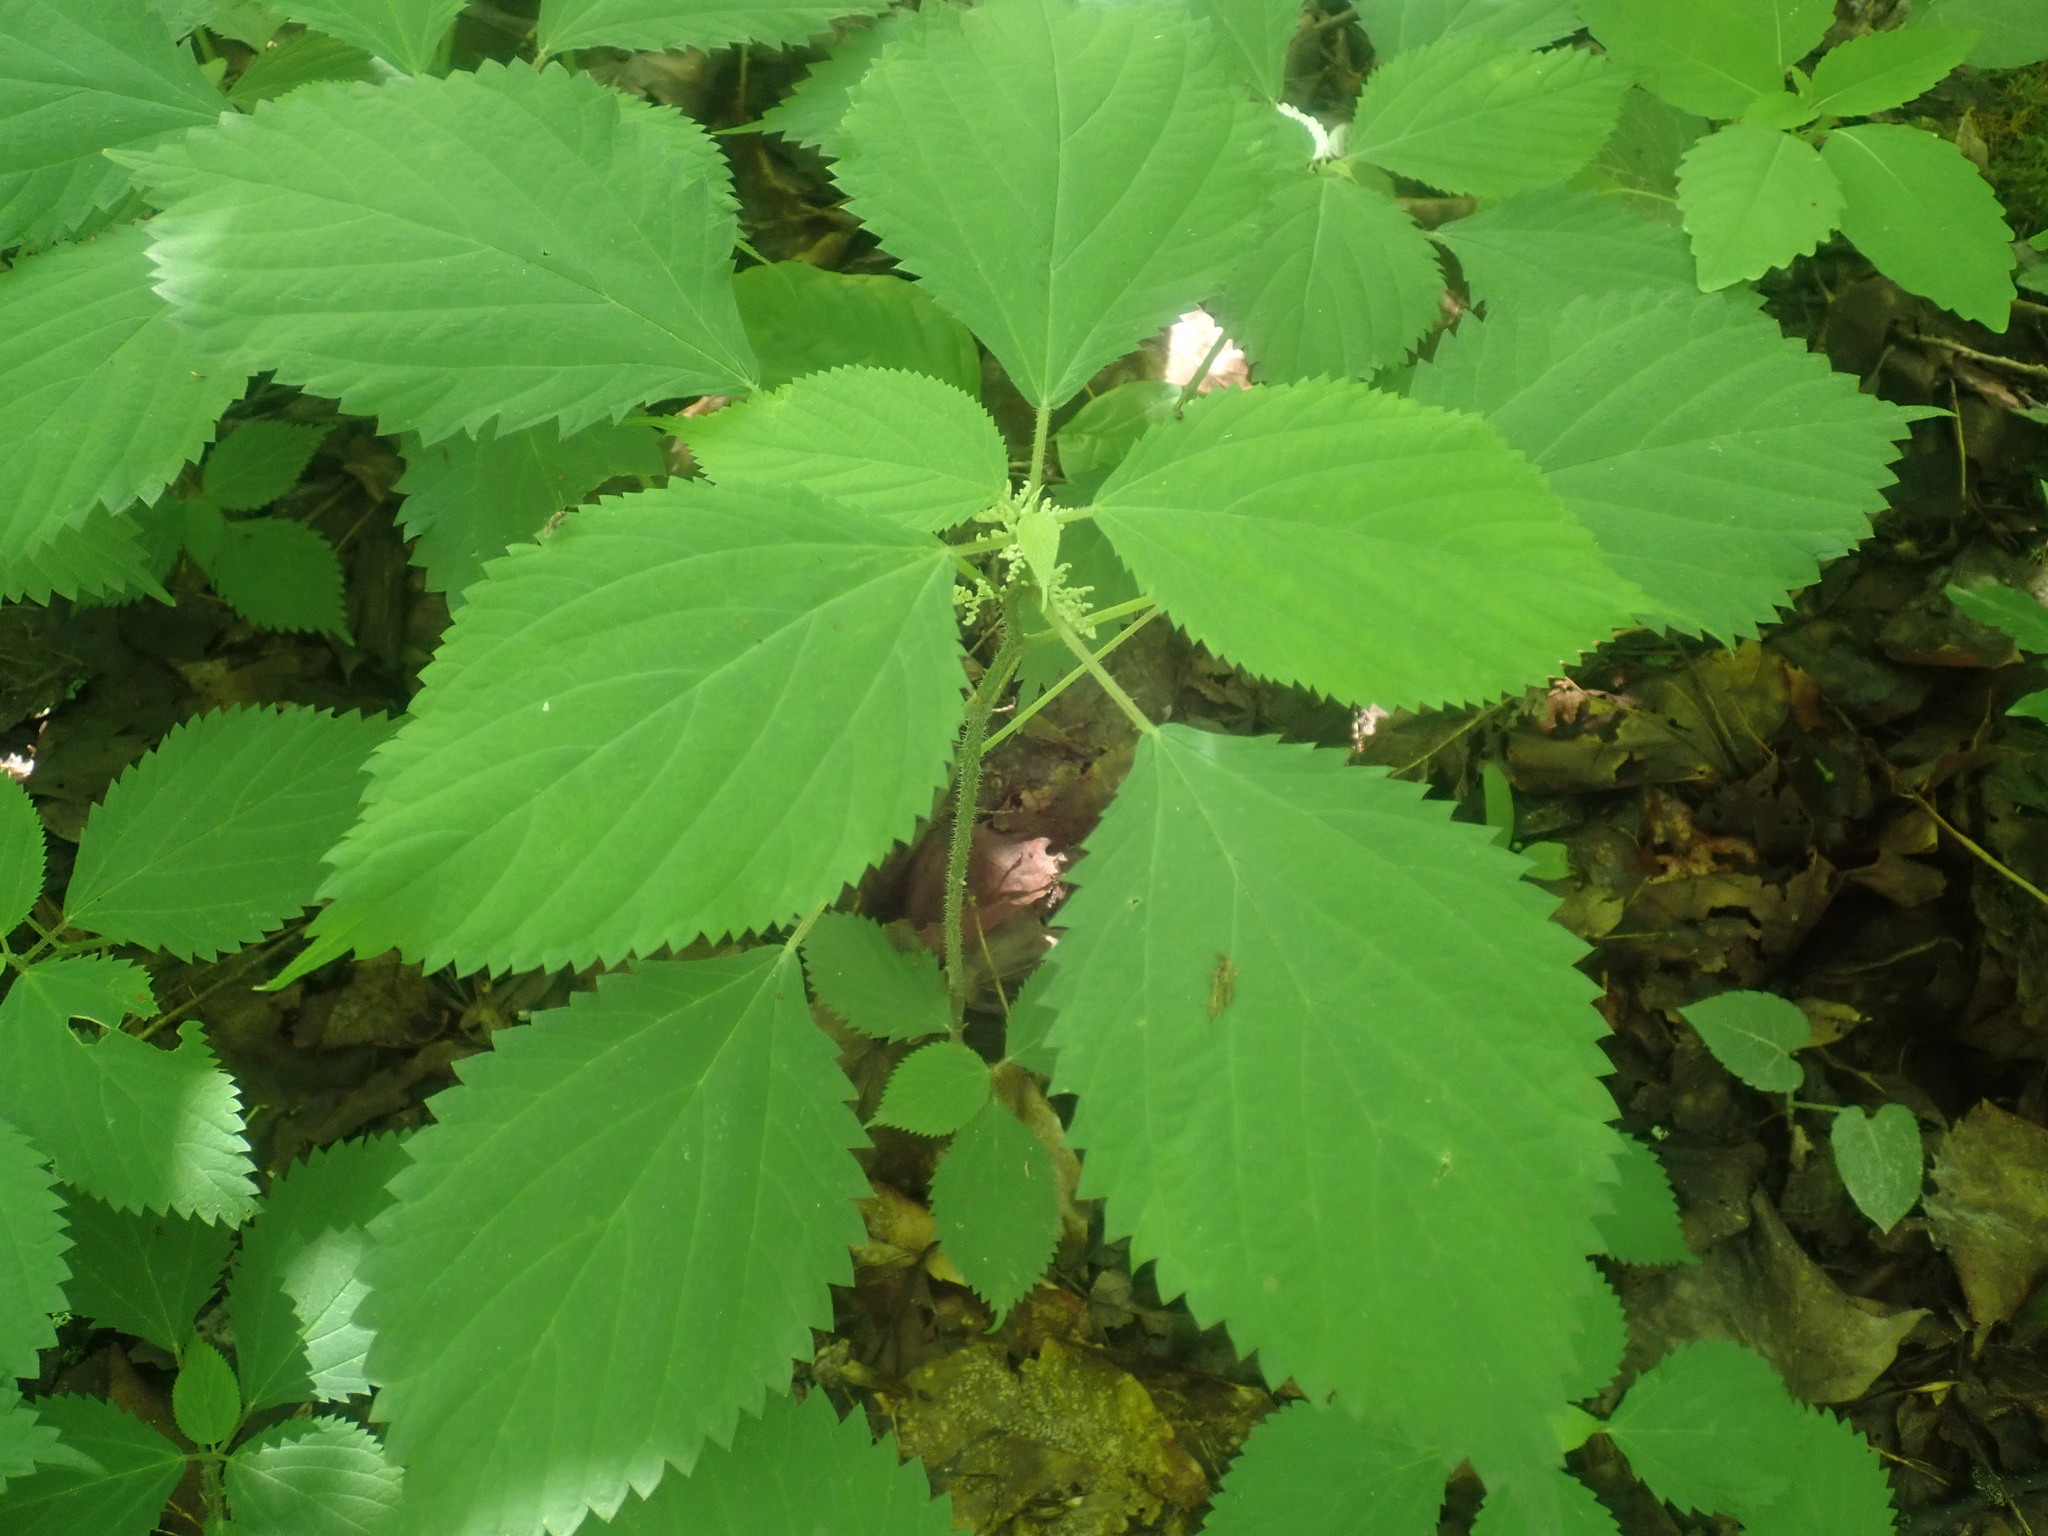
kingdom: Plantae
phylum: Tracheophyta
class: Magnoliopsida
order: Rosales
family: Urticaceae
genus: Laportea
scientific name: Laportea canadensis
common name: Canada nettle
